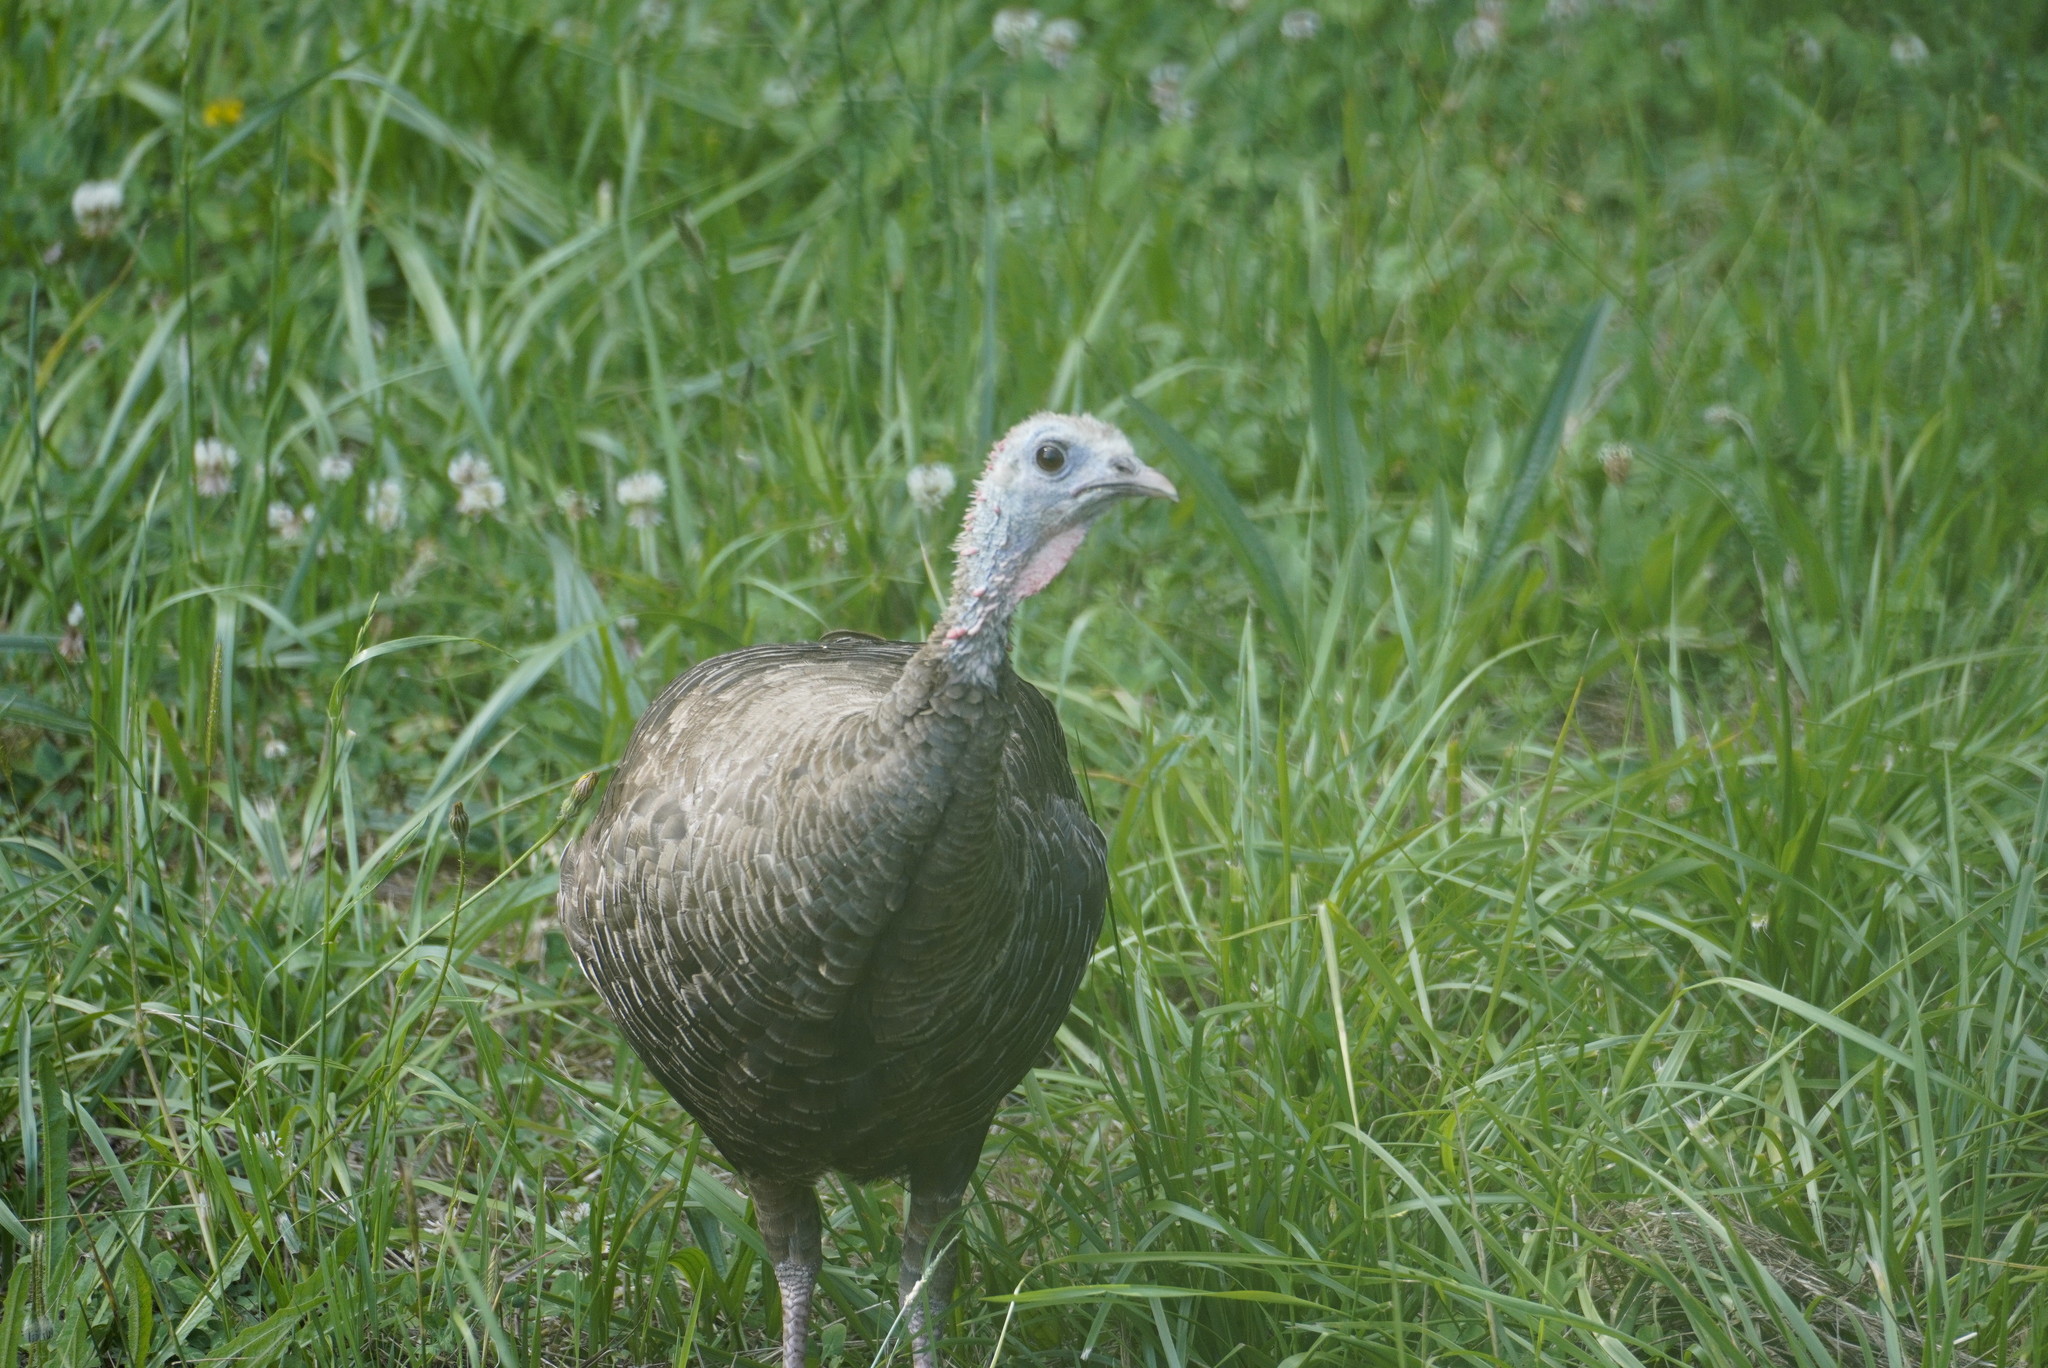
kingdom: Animalia
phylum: Chordata
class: Aves
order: Galliformes
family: Phasianidae
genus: Meleagris
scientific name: Meleagris gallopavo
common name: Wild turkey
